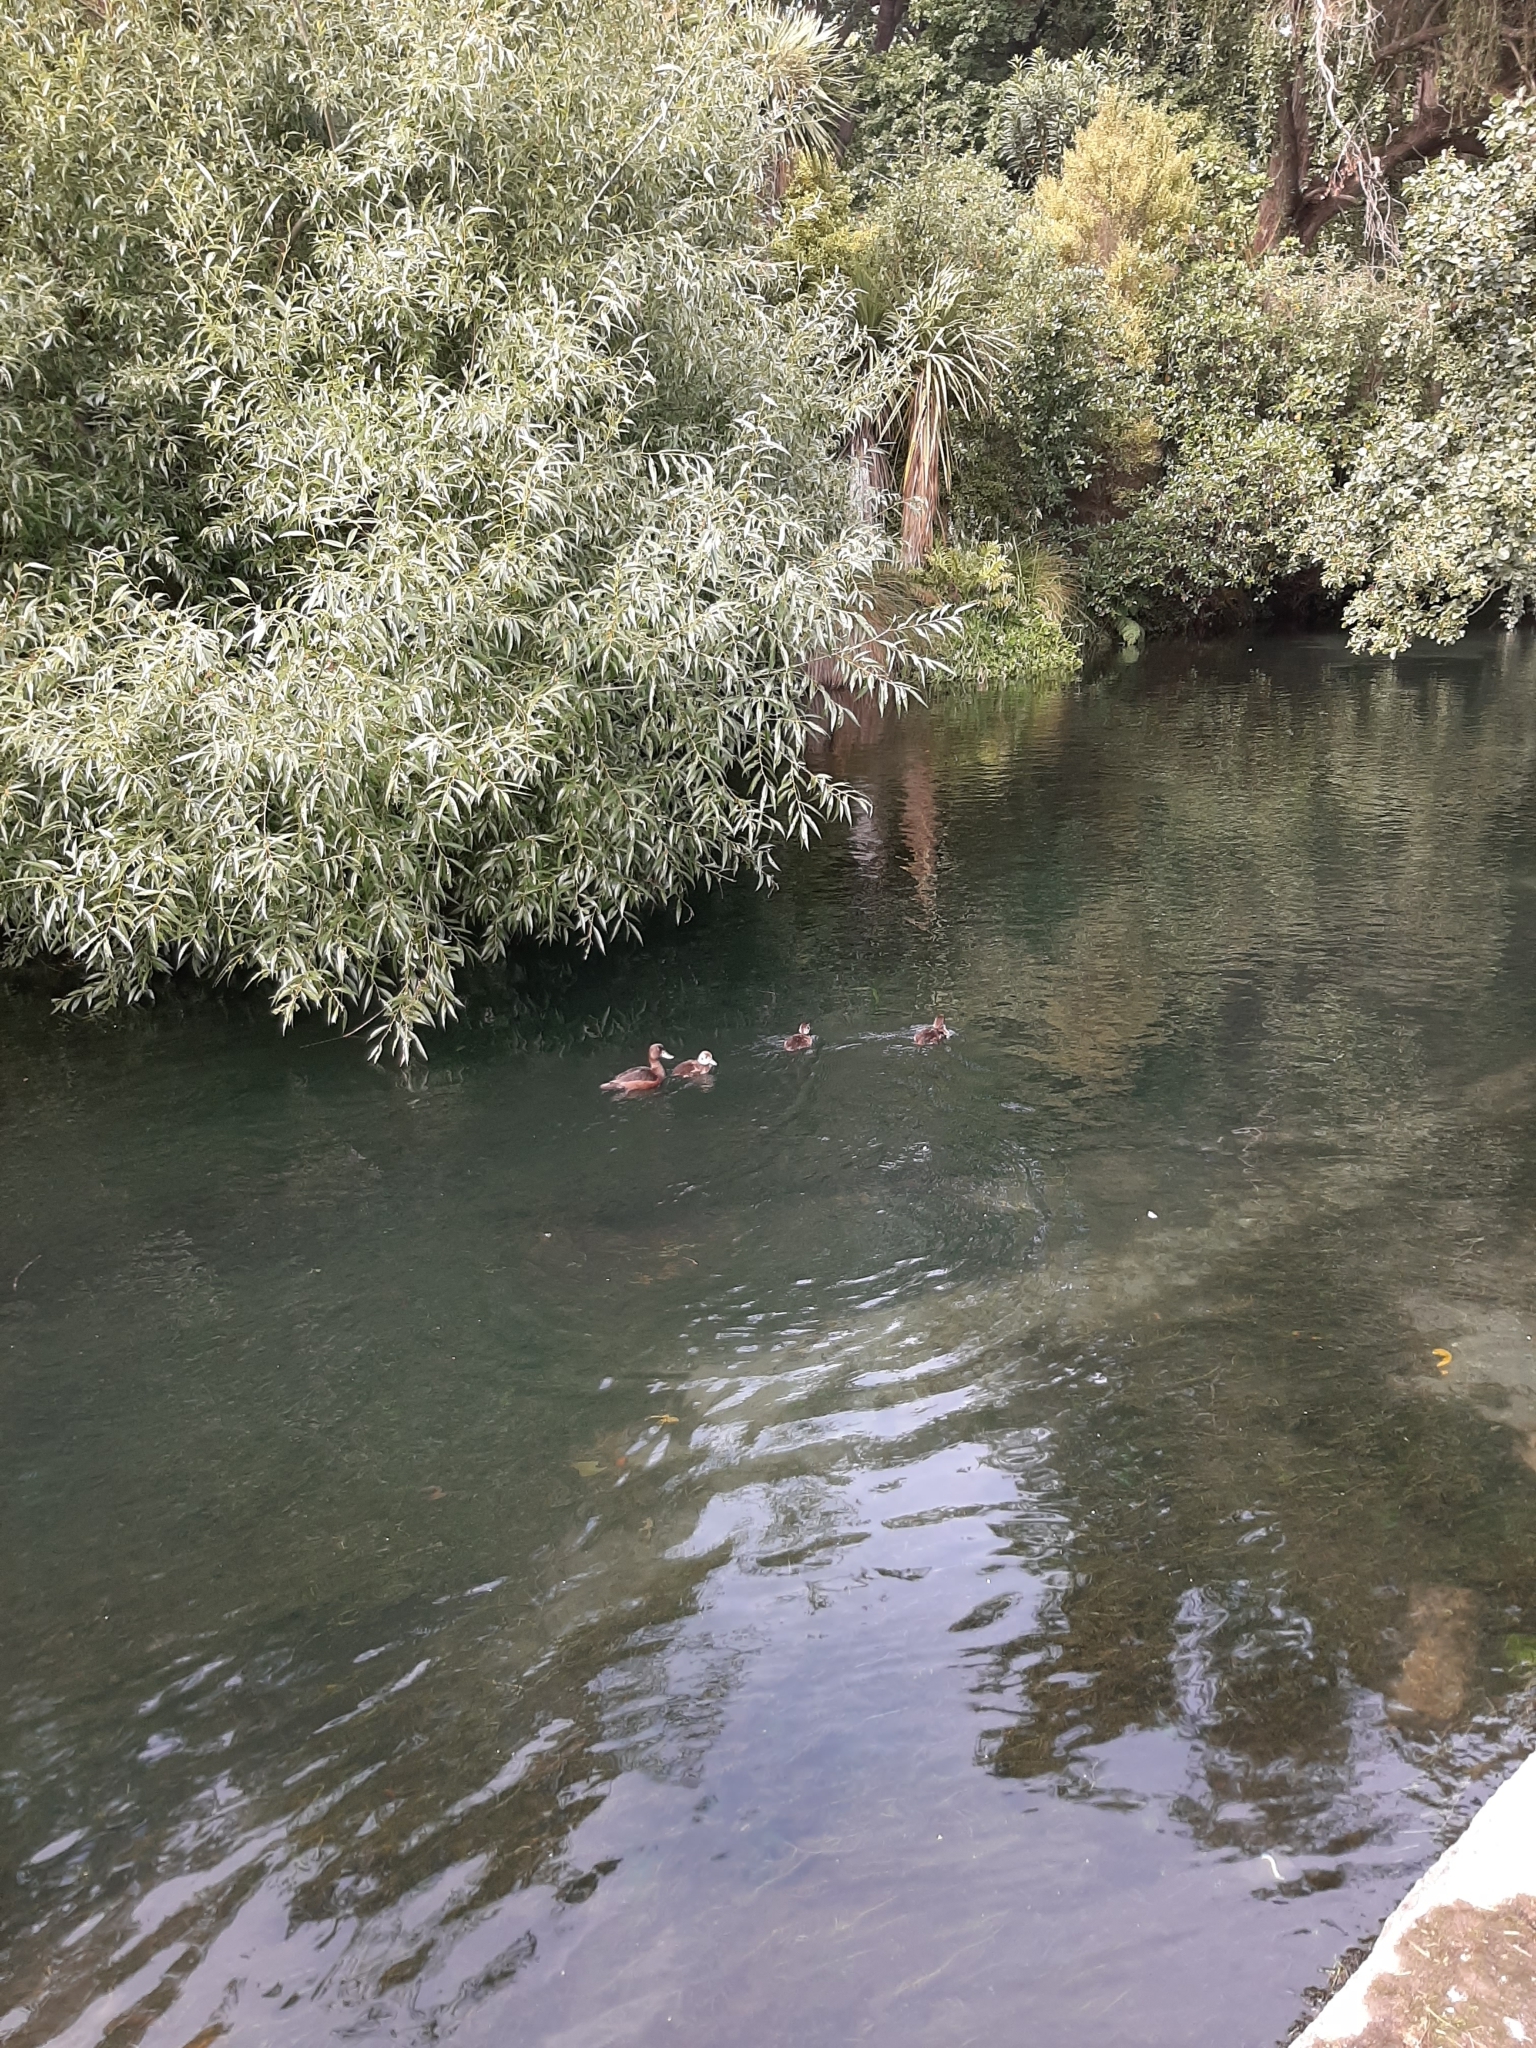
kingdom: Animalia
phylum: Chordata
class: Aves
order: Anseriformes
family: Anatidae
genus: Aythya
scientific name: Aythya novaeseelandiae
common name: New zealand scaup
